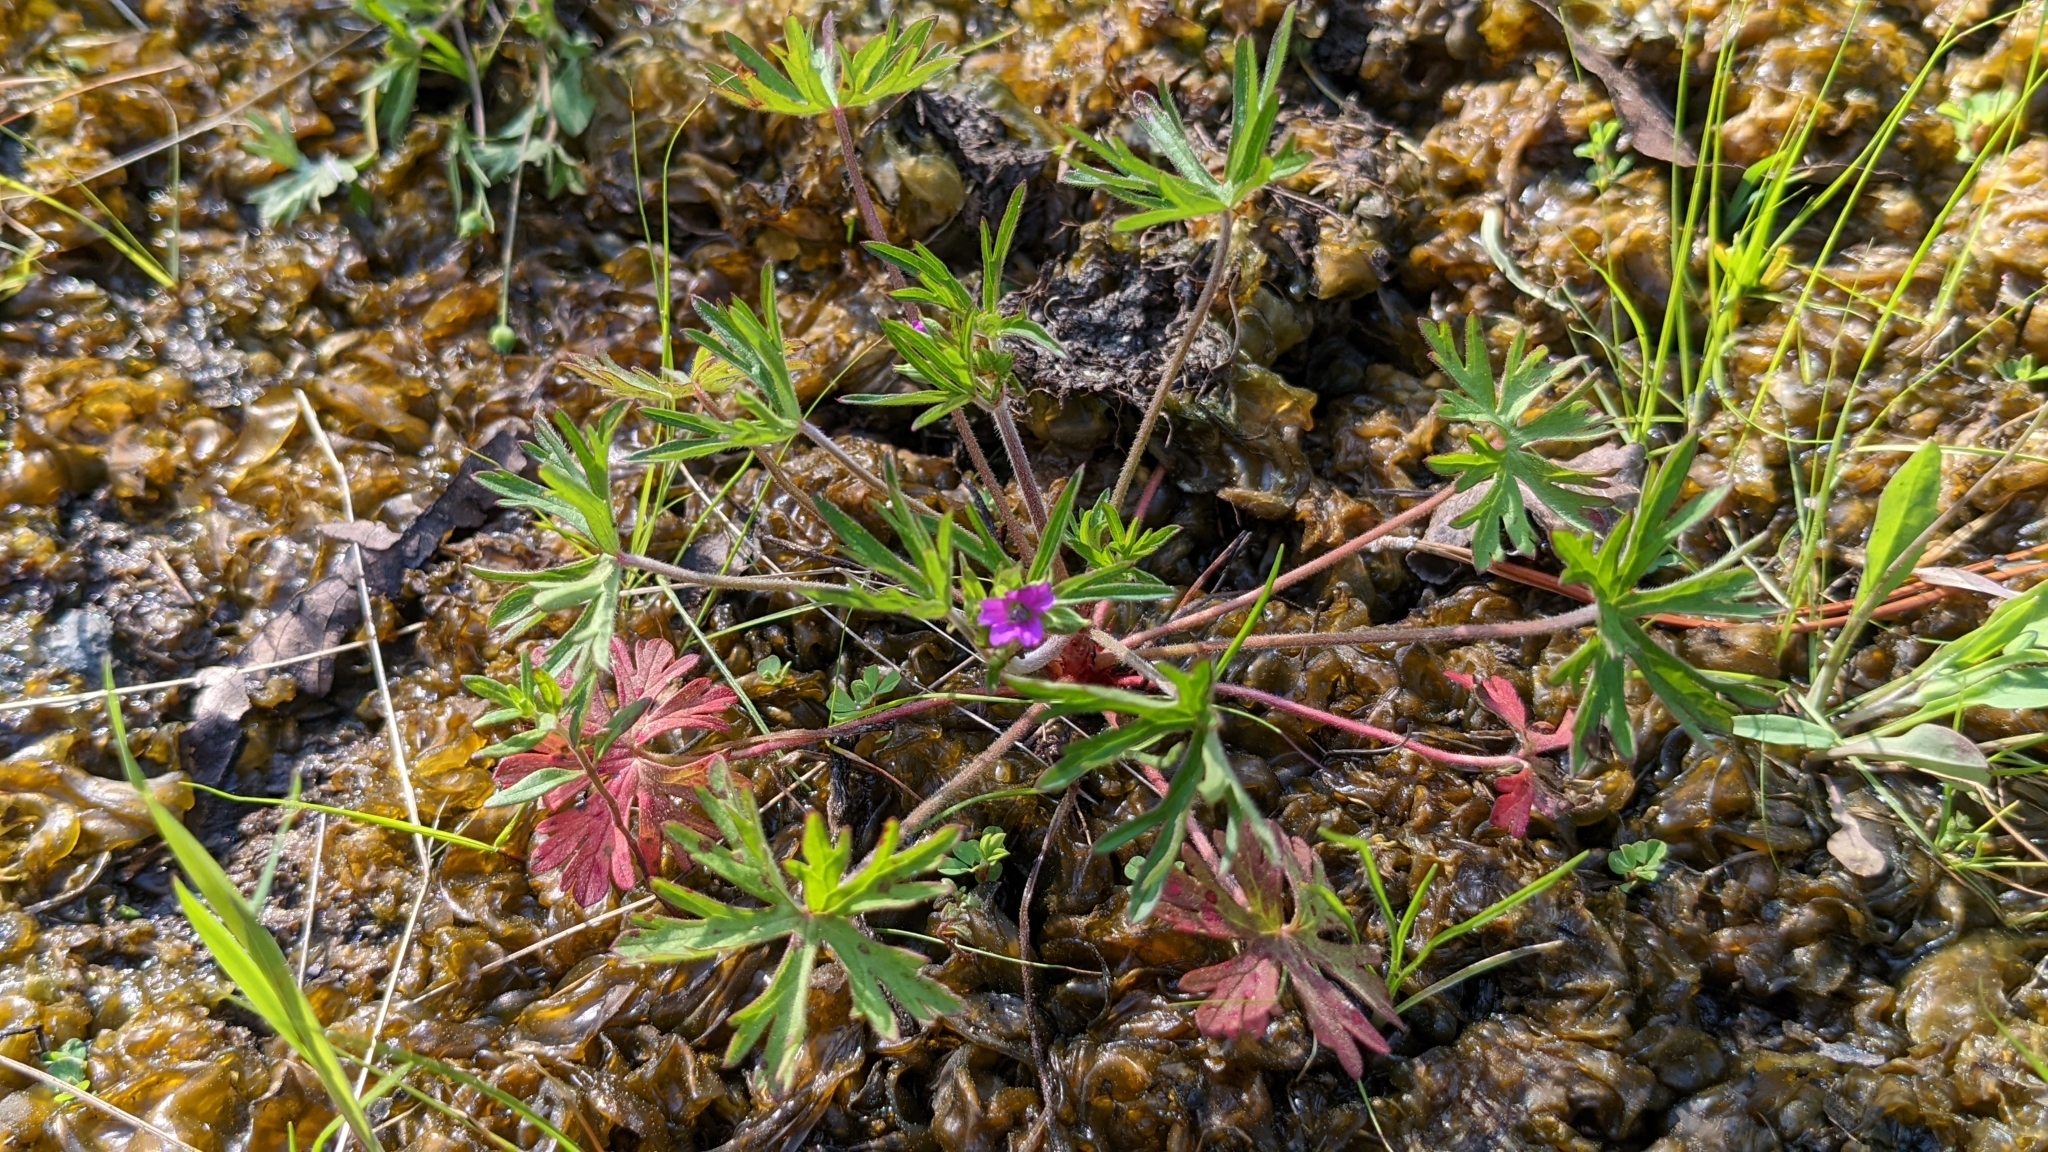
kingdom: Plantae
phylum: Tracheophyta
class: Magnoliopsida
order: Geraniales
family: Geraniaceae
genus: Geranium
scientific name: Geranium dissectum
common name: Cut-leaved crane's-bill
